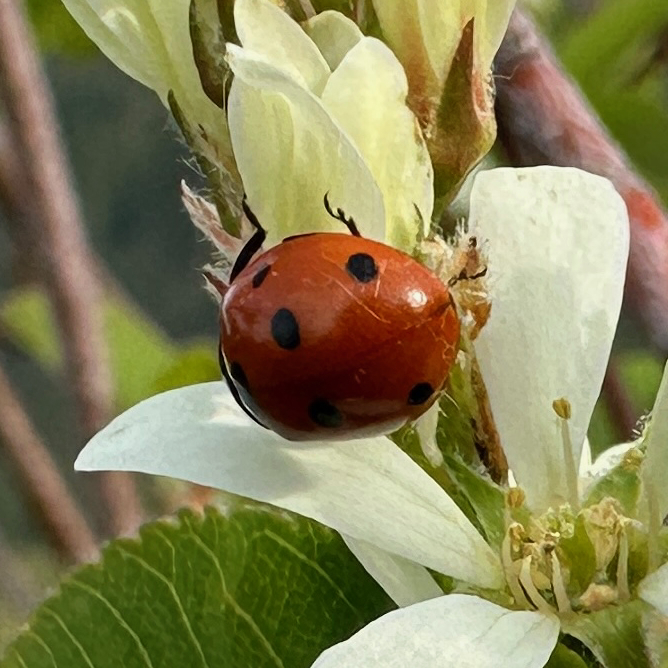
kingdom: Animalia
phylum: Arthropoda
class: Insecta
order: Coleoptera
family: Coccinellidae
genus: Coccinella
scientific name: Coccinella septempunctata
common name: Sevenspotted lady beetle
